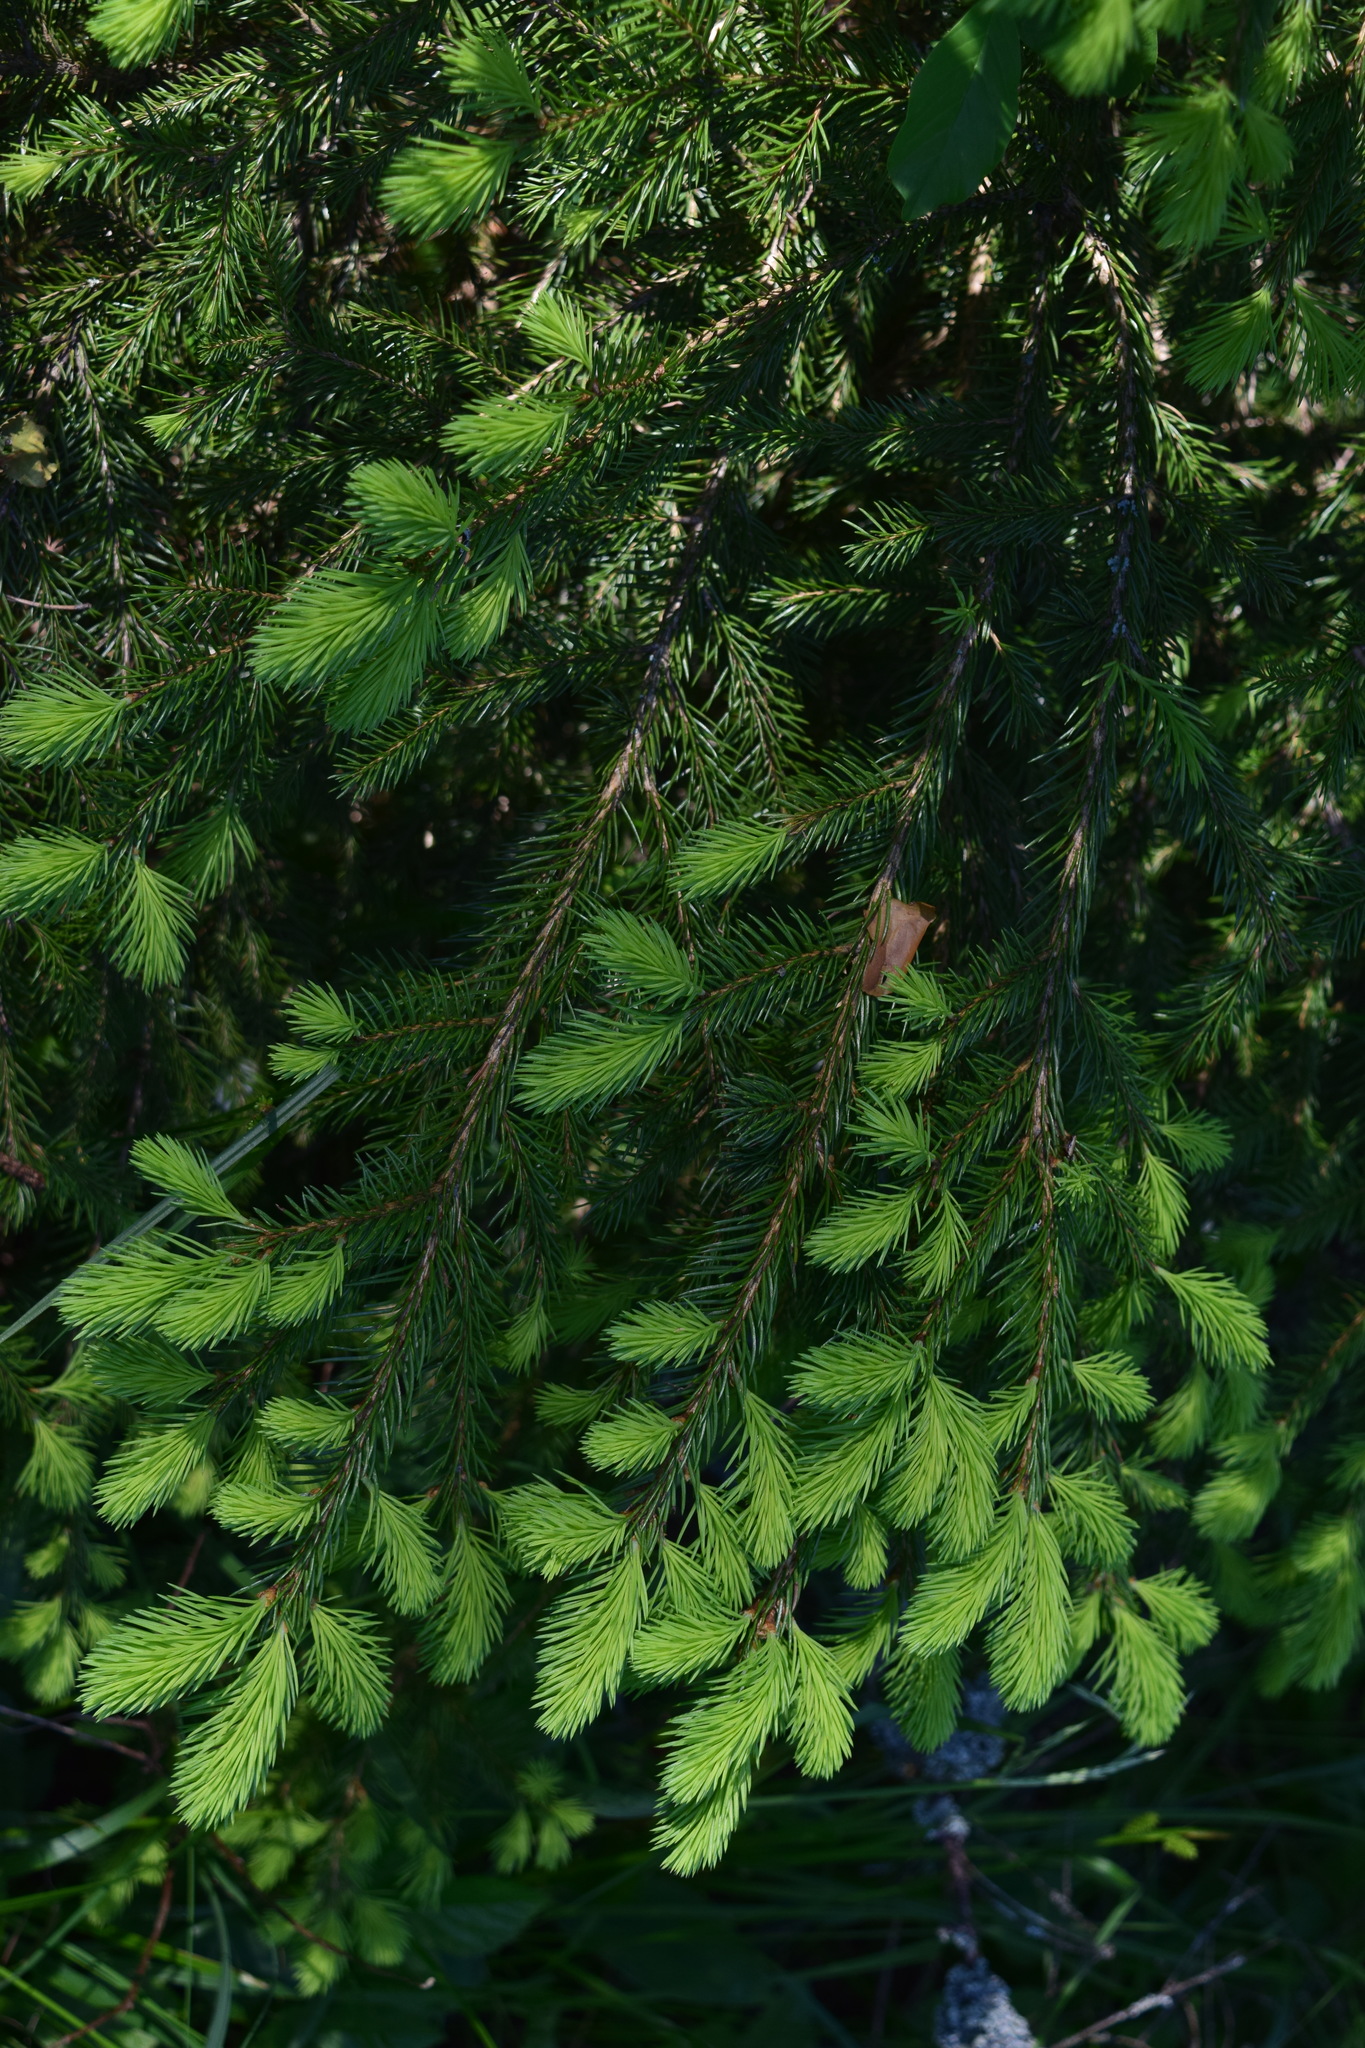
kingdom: Plantae
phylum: Tracheophyta
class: Pinopsida
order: Pinales
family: Pinaceae
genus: Picea
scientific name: Picea abies
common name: Norway spruce
